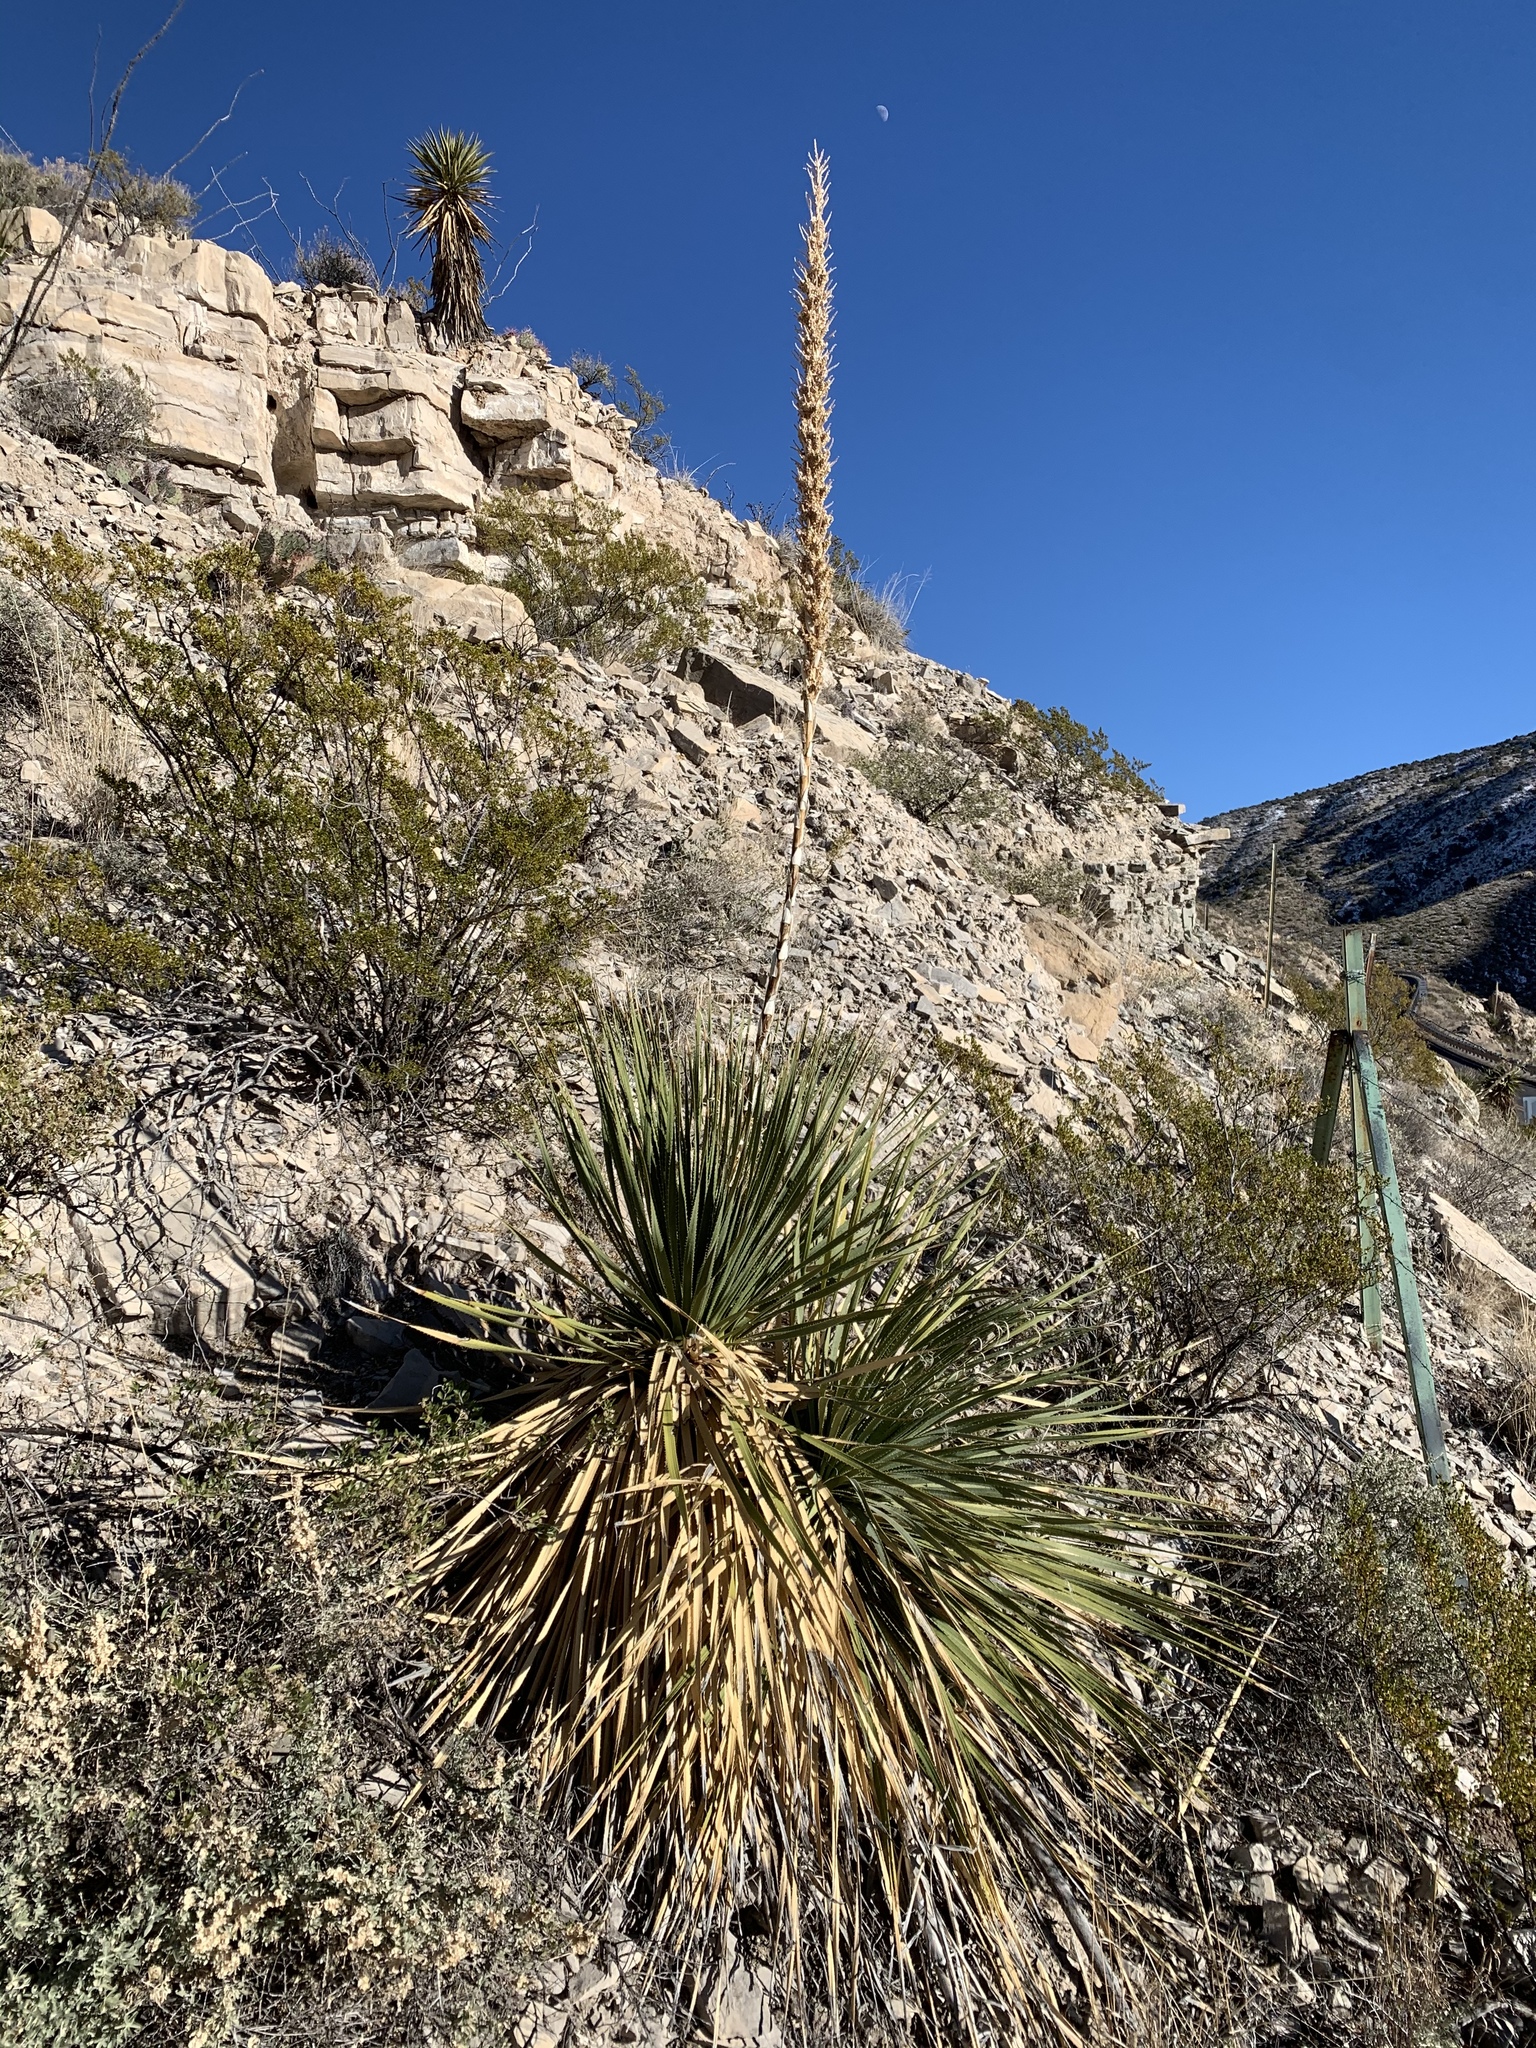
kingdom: Plantae
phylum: Tracheophyta
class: Liliopsida
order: Asparagales
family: Asparagaceae
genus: Dasylirion
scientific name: Dasylirion wheeleri
